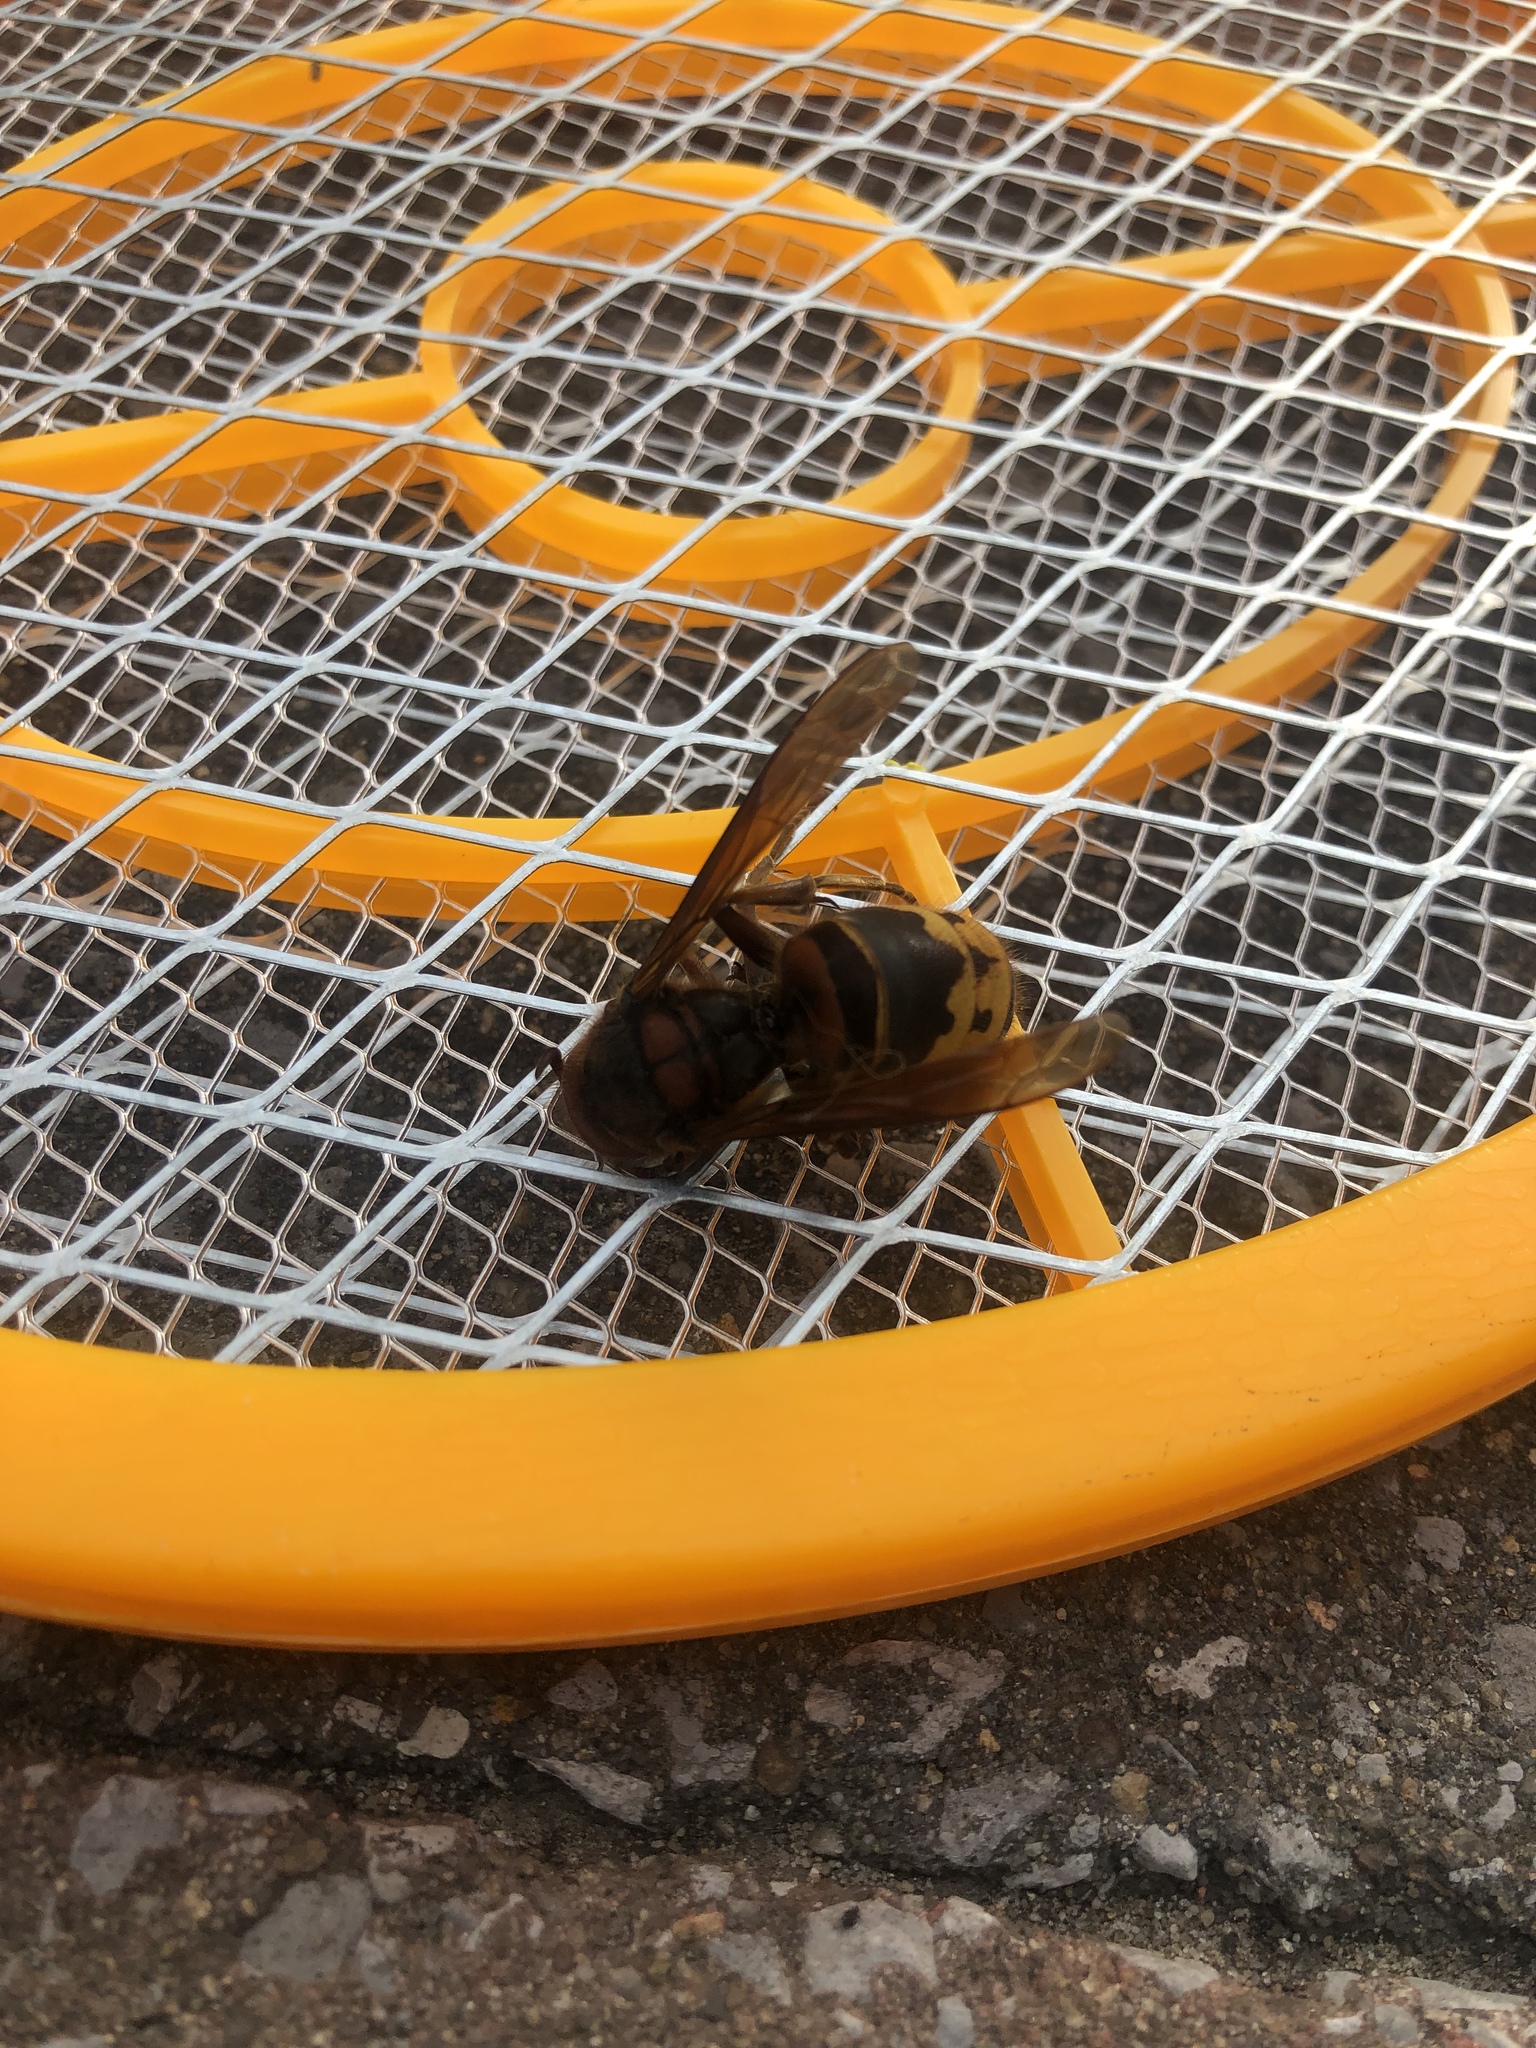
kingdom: Animalia
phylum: Arthropoda
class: Insecta
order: Hymenoptera
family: Vespidae
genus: Vespa
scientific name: Vespa crabro
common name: Hornet
